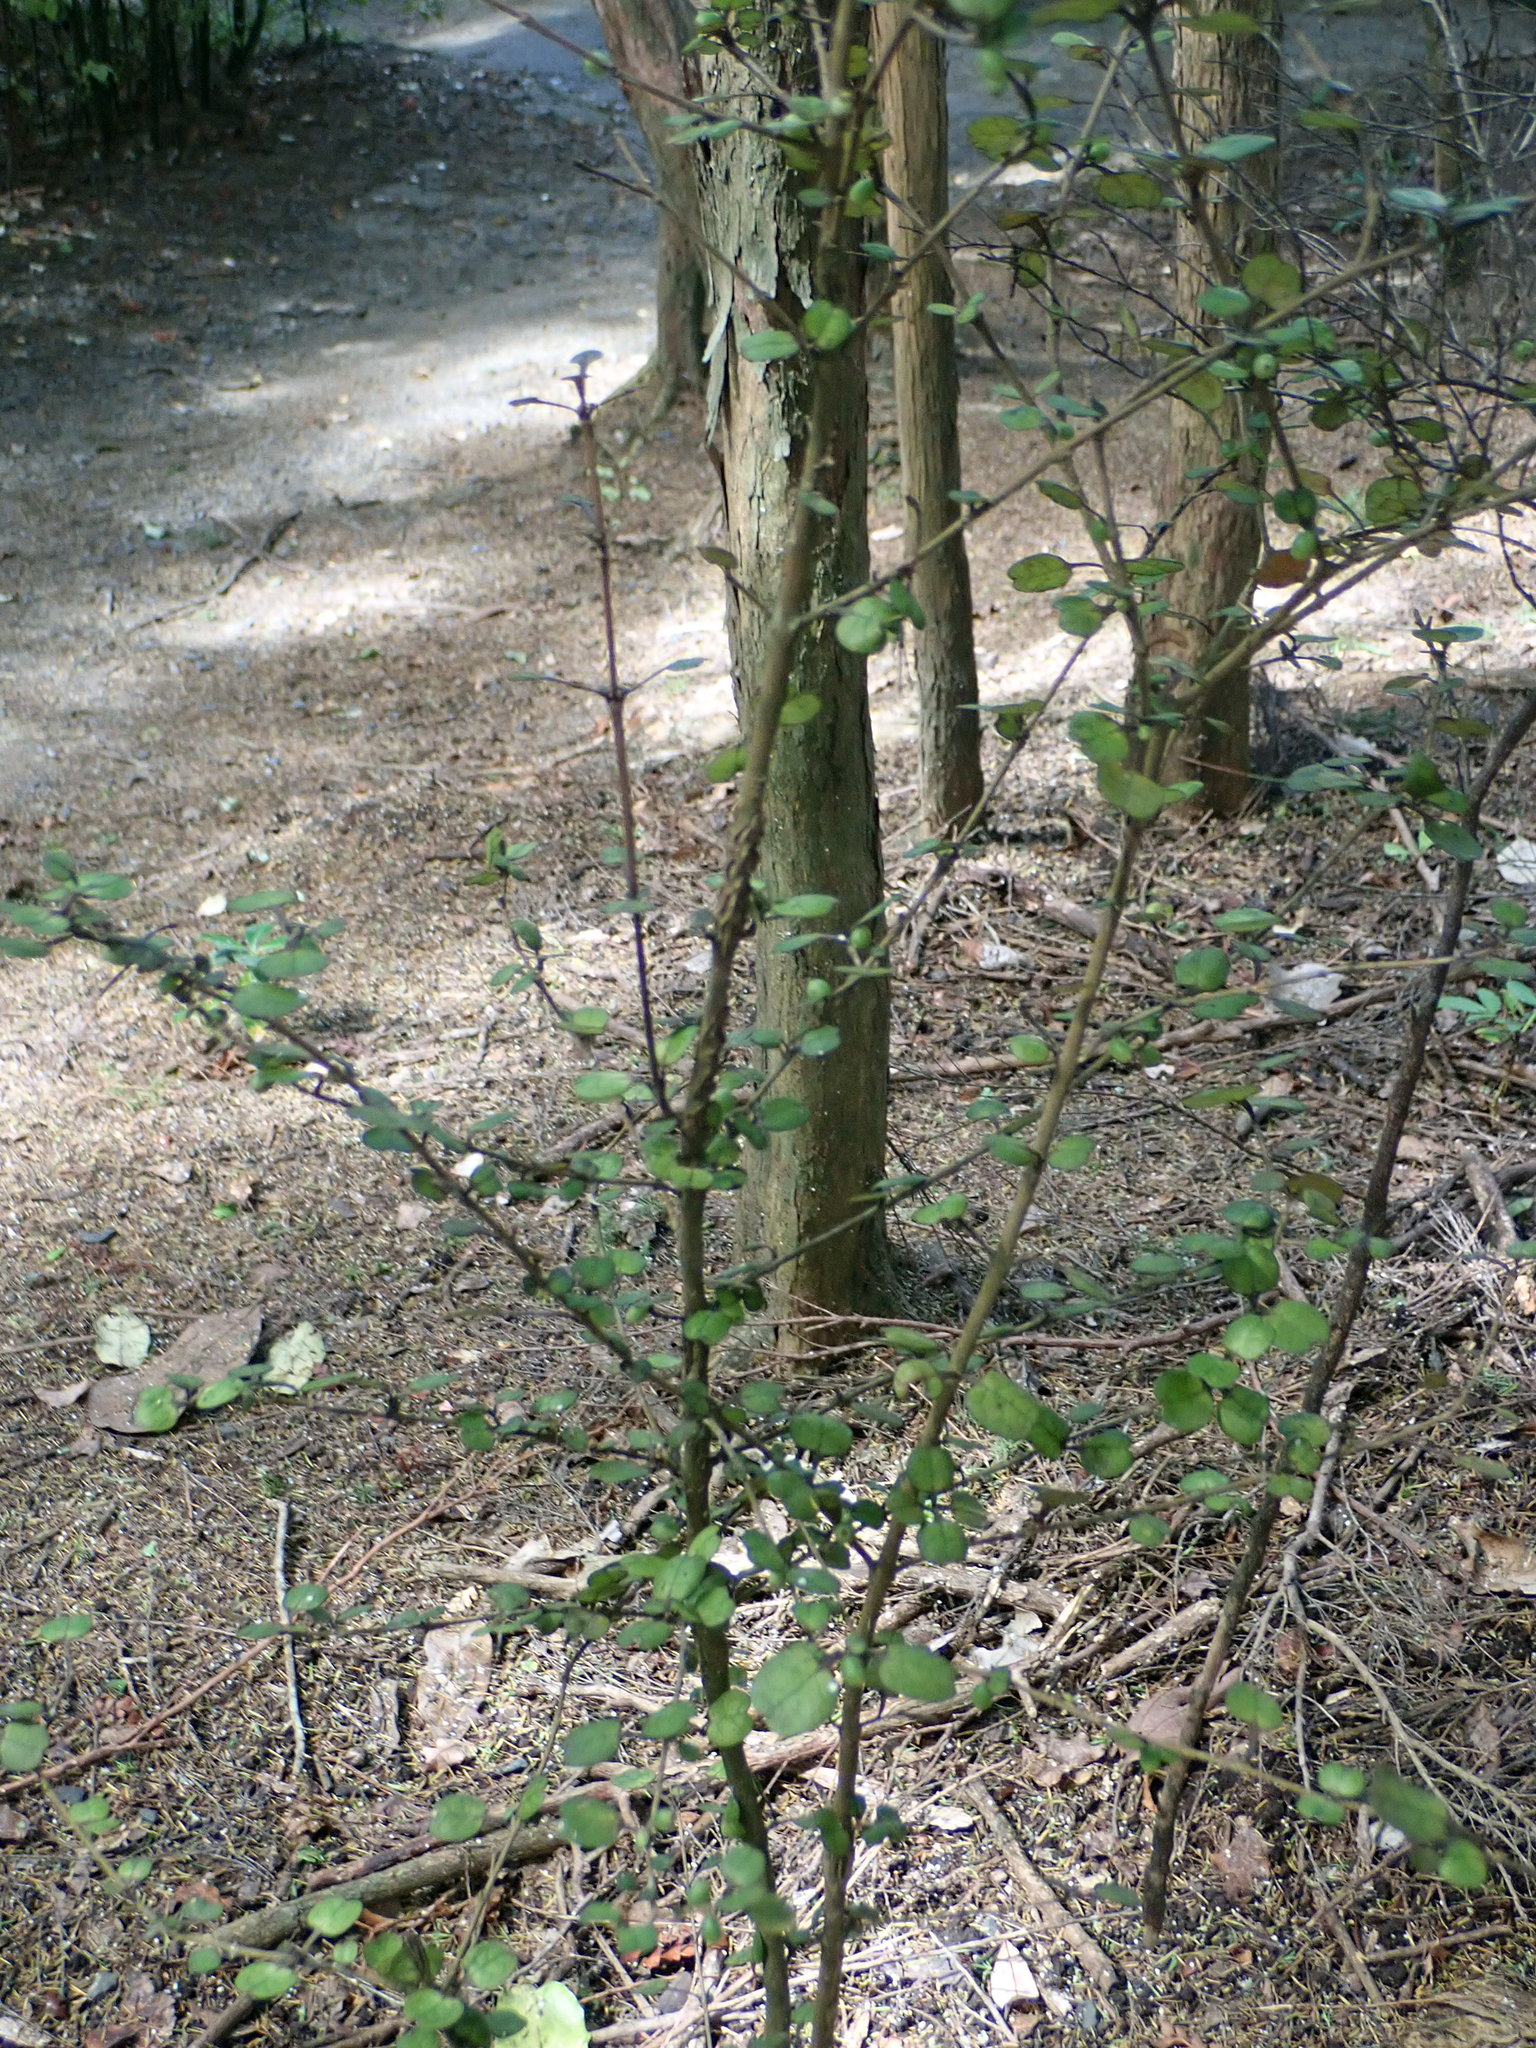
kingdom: Plantae
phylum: Tracheophyta
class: Magnoliopsida
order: Gentianales
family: Rubiaceae
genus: Coprosma
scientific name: Coprosma spathulata
